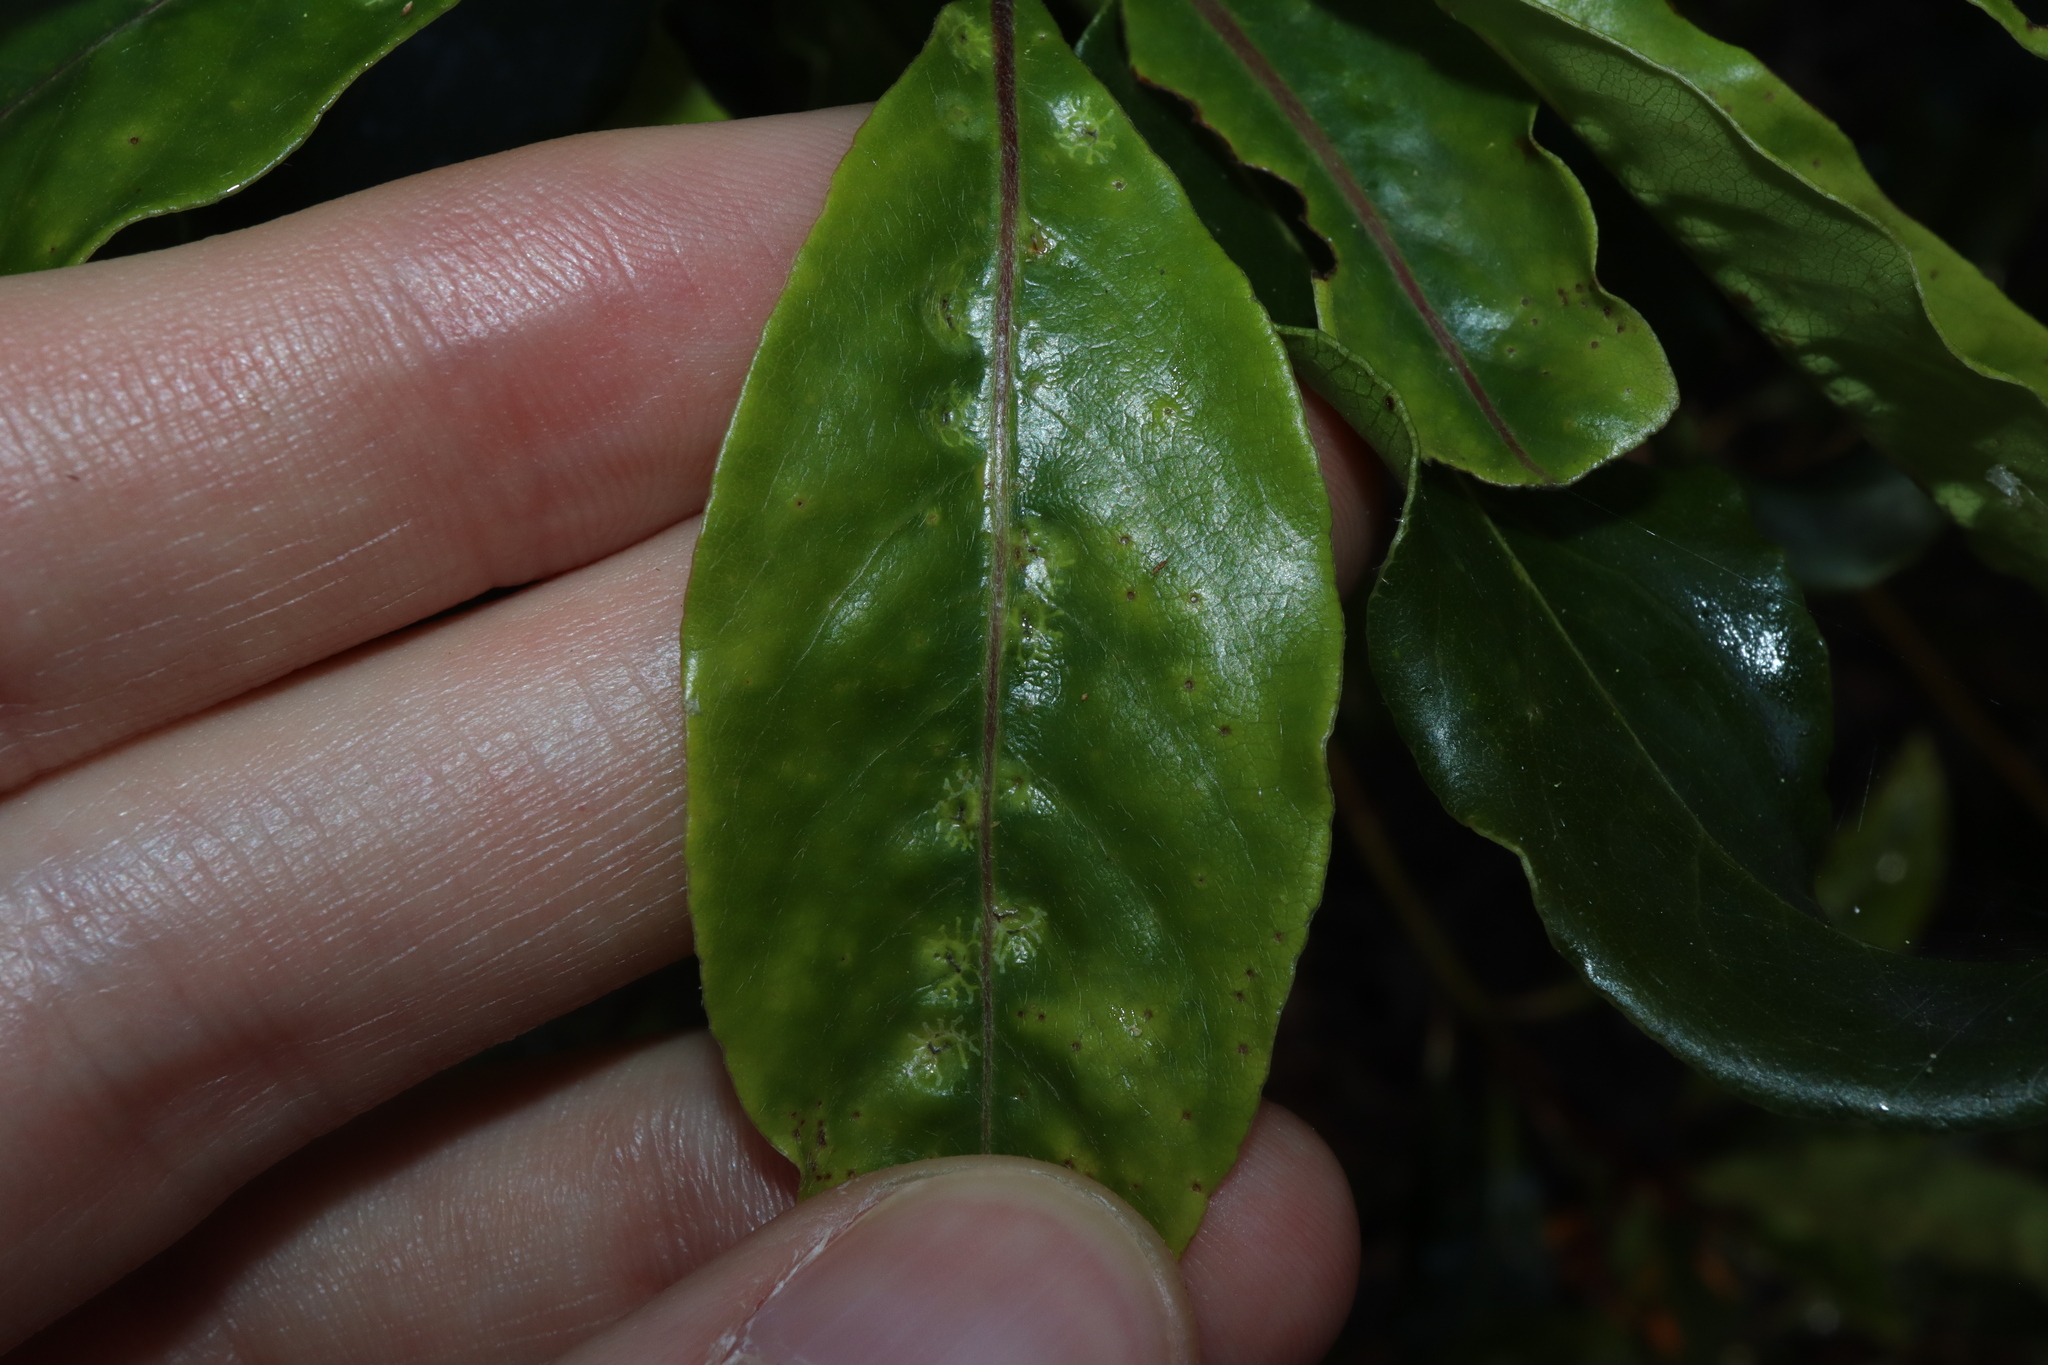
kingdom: Animalia
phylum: Arthropoda
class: Insecta
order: Diptera
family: Agromyzidae
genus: Phytoliriomyza
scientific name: Phytoliriomyza pittosporophylli
